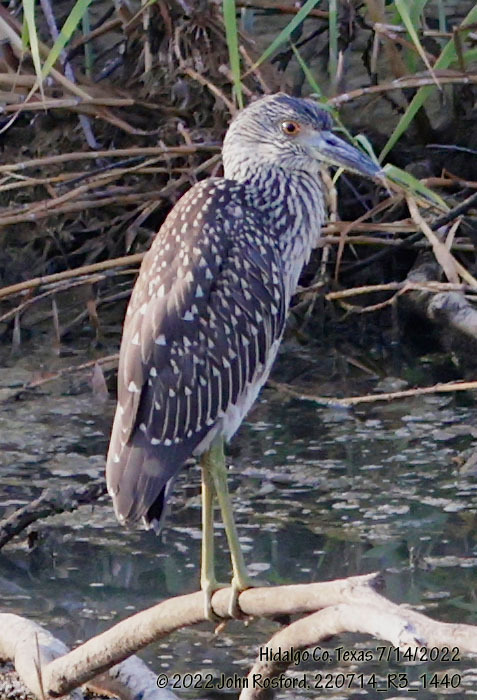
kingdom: Animalia
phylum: Chordata
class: Aves
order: Pelecaniformes
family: Ardeidae
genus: Nyctanassa
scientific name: Nyctanassa violacea
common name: Yellow-crowned night heron
